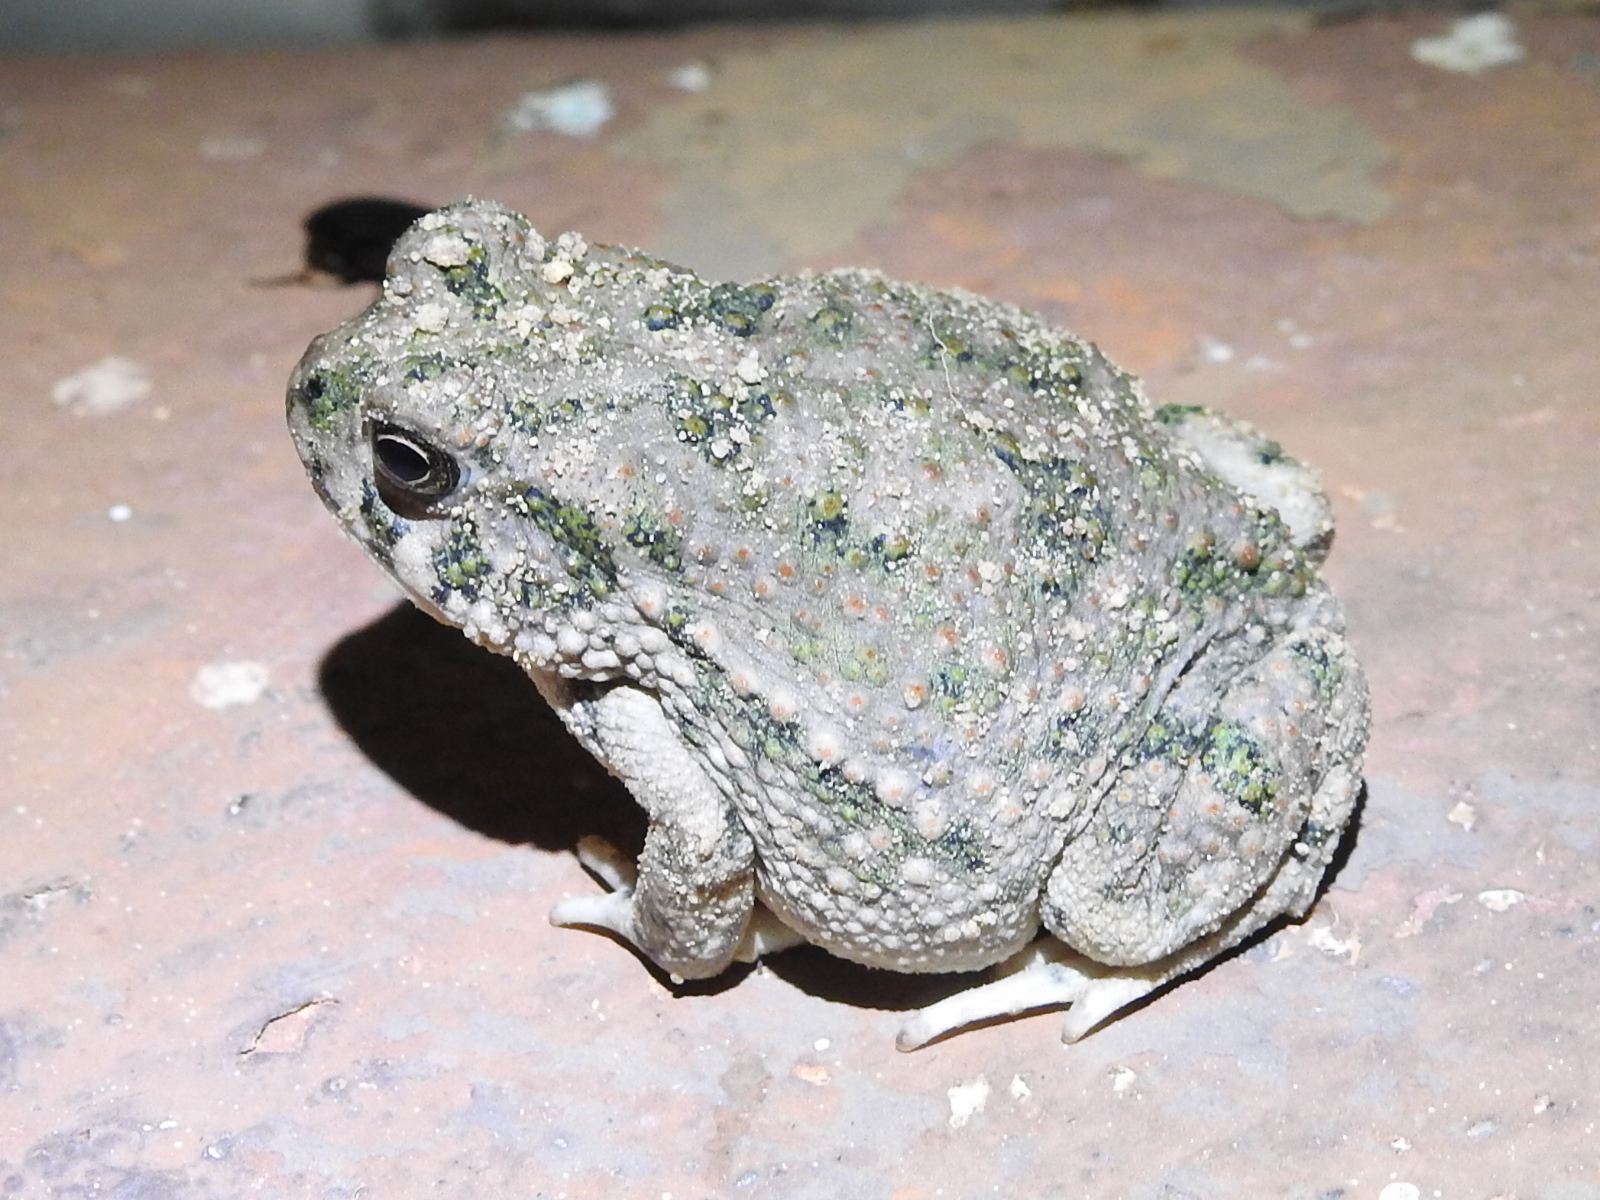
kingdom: Animalia
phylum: Chordata
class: Amphibia
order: Anura
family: Bufonidae
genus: Anaxyrus
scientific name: Anaxyrus speciosus
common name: Texas toad
